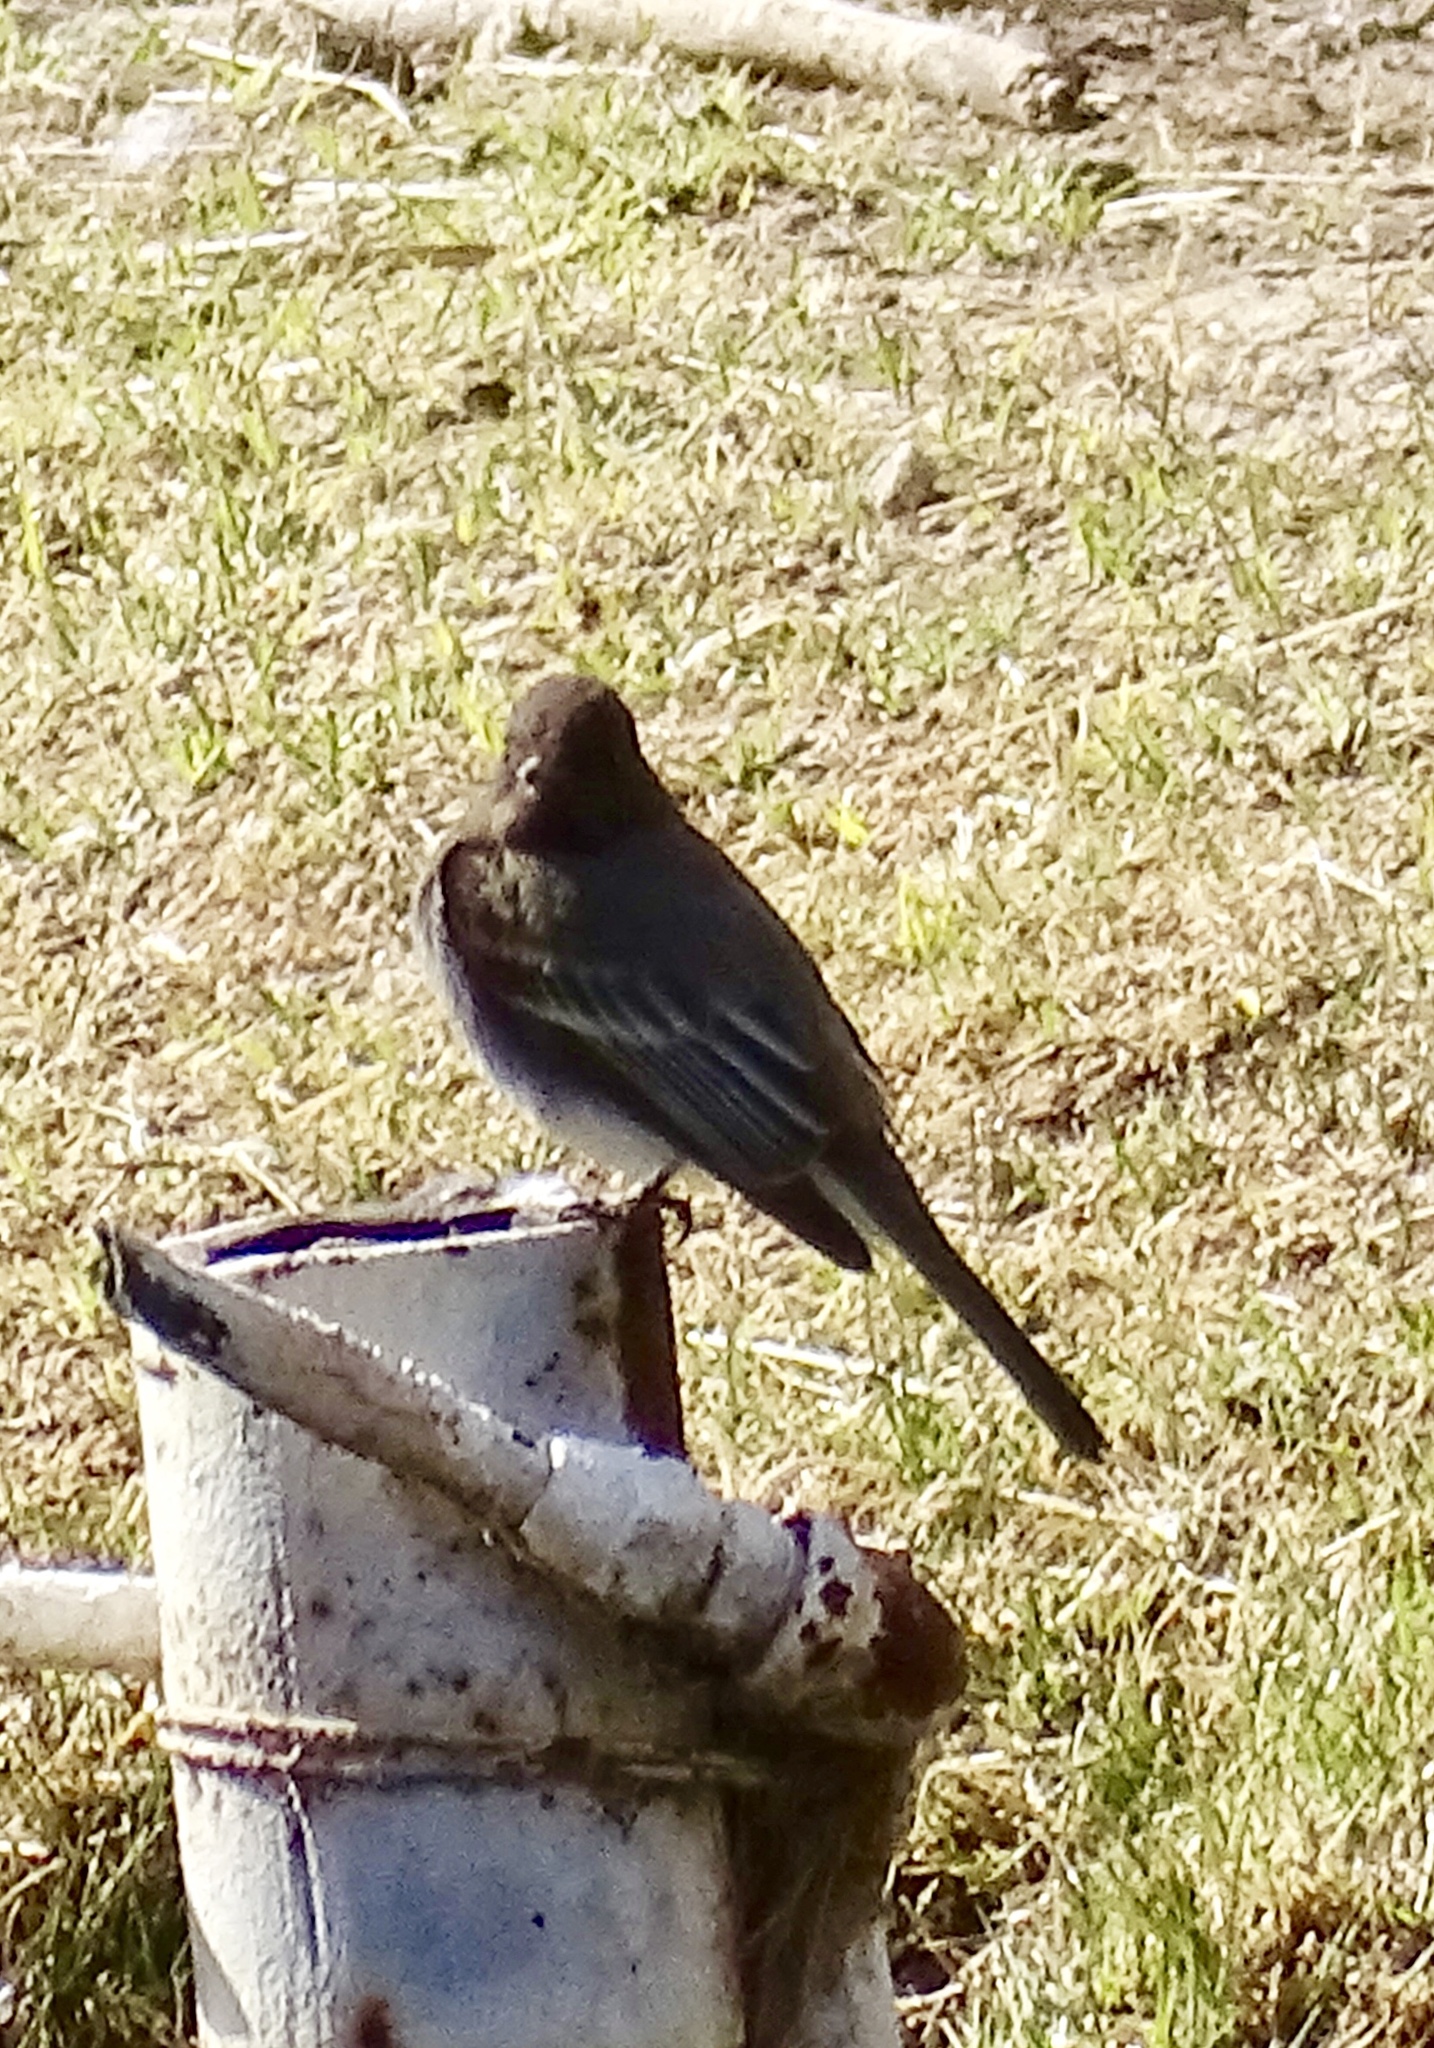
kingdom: Animalia
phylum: Chordata
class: Aves
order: Passeriformes
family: Tyrannidae
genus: Sayornis
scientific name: Sayornis nigricans
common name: Black phoebe
